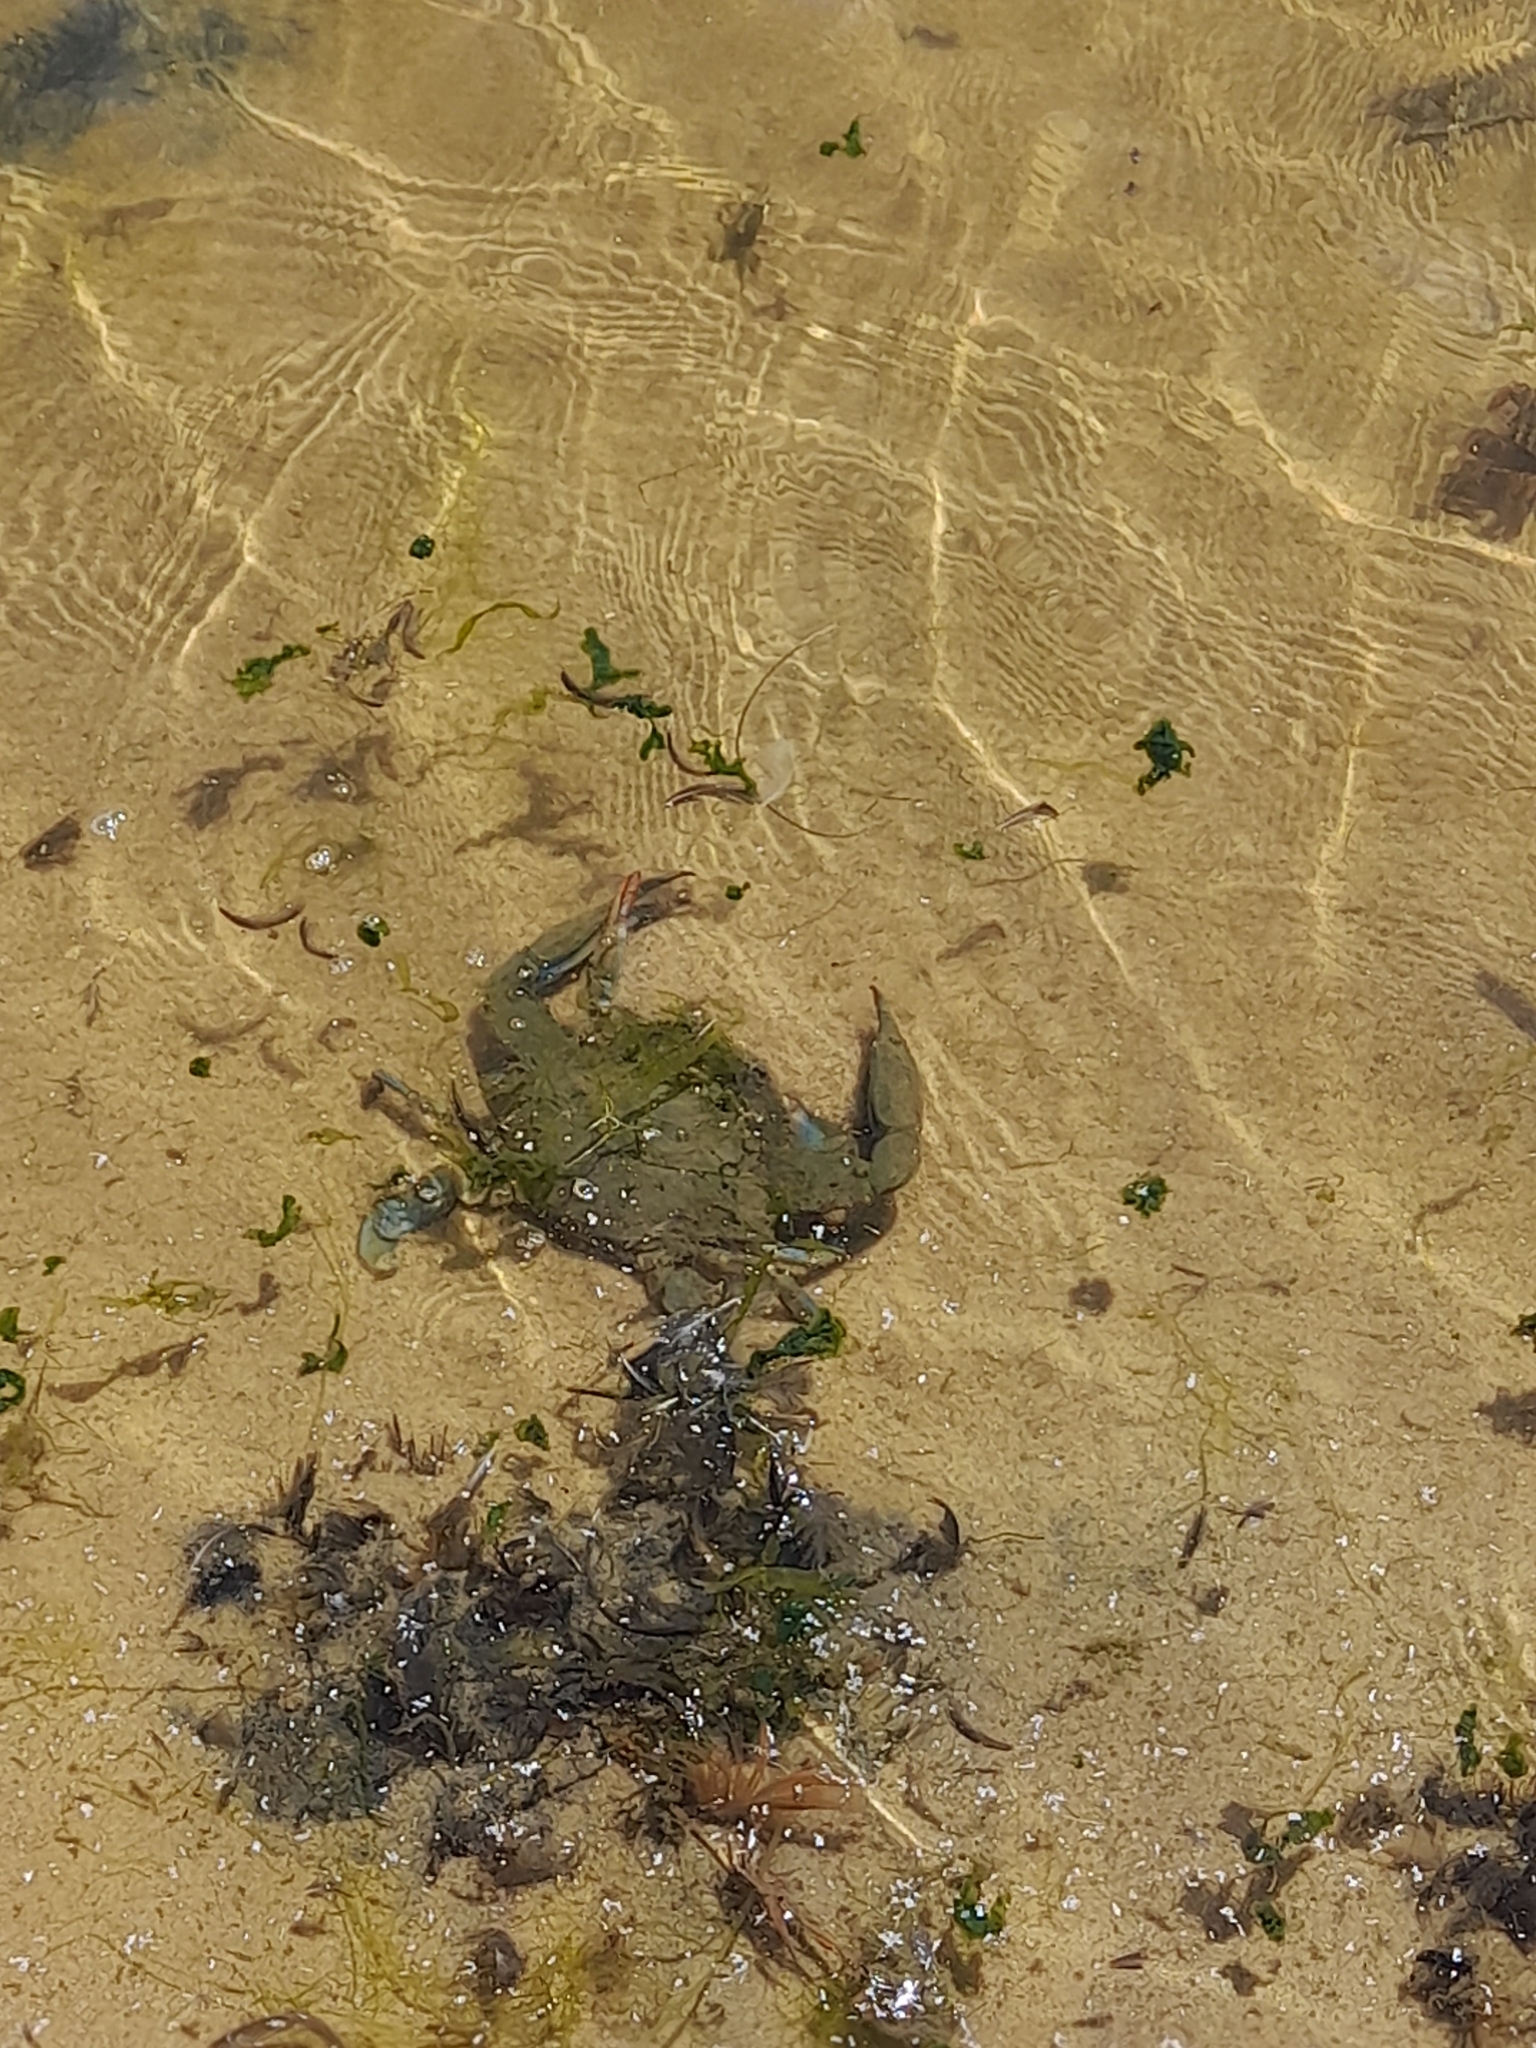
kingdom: Animalia
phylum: Arthropoda
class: Malacostraca
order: Decapoda
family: Portunidae
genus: Callinectes
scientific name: Callinectes sapidus
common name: Blue crab
